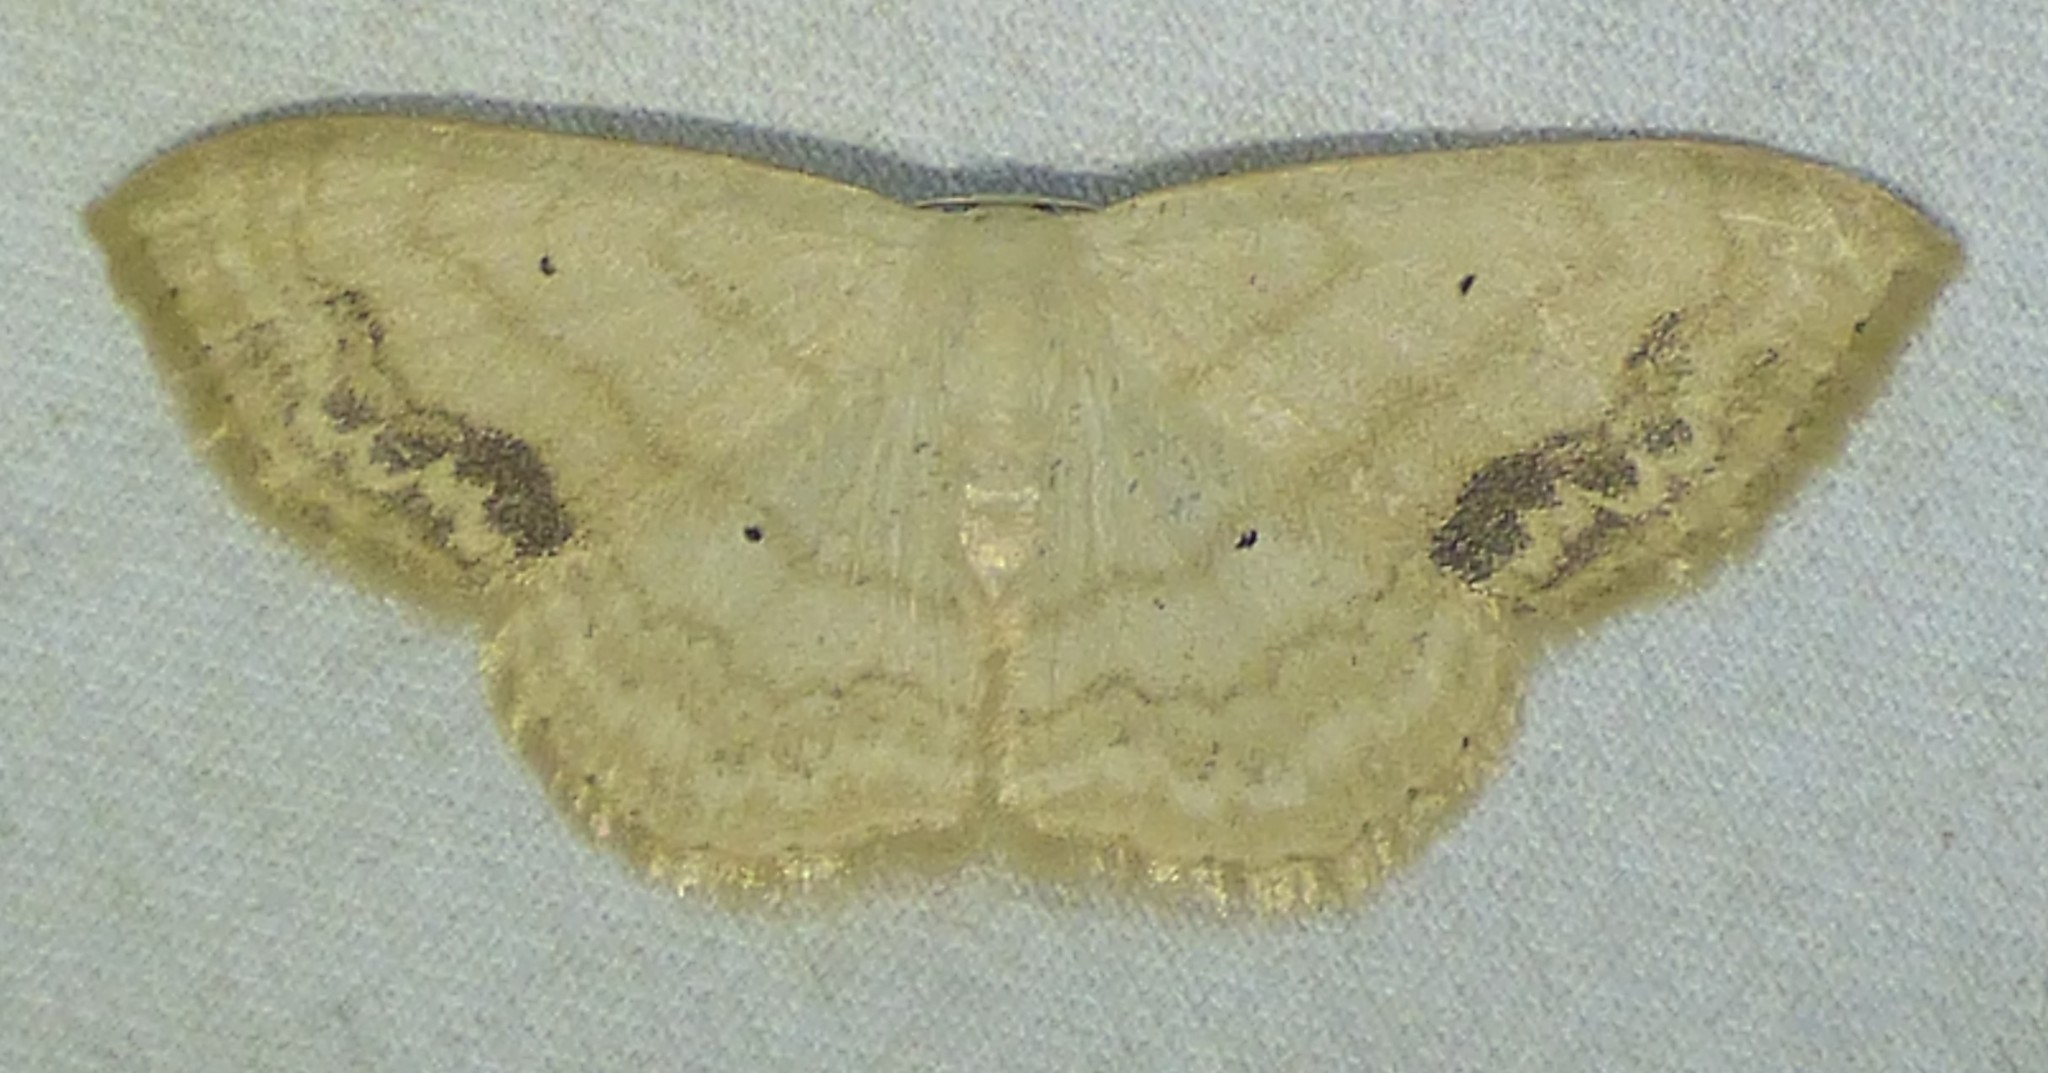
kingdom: Animalia
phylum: Arthropoda
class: Insecta
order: Lepidoptera
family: Geometridae
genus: Scopula
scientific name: Scopula limboundata
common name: Large lace border
